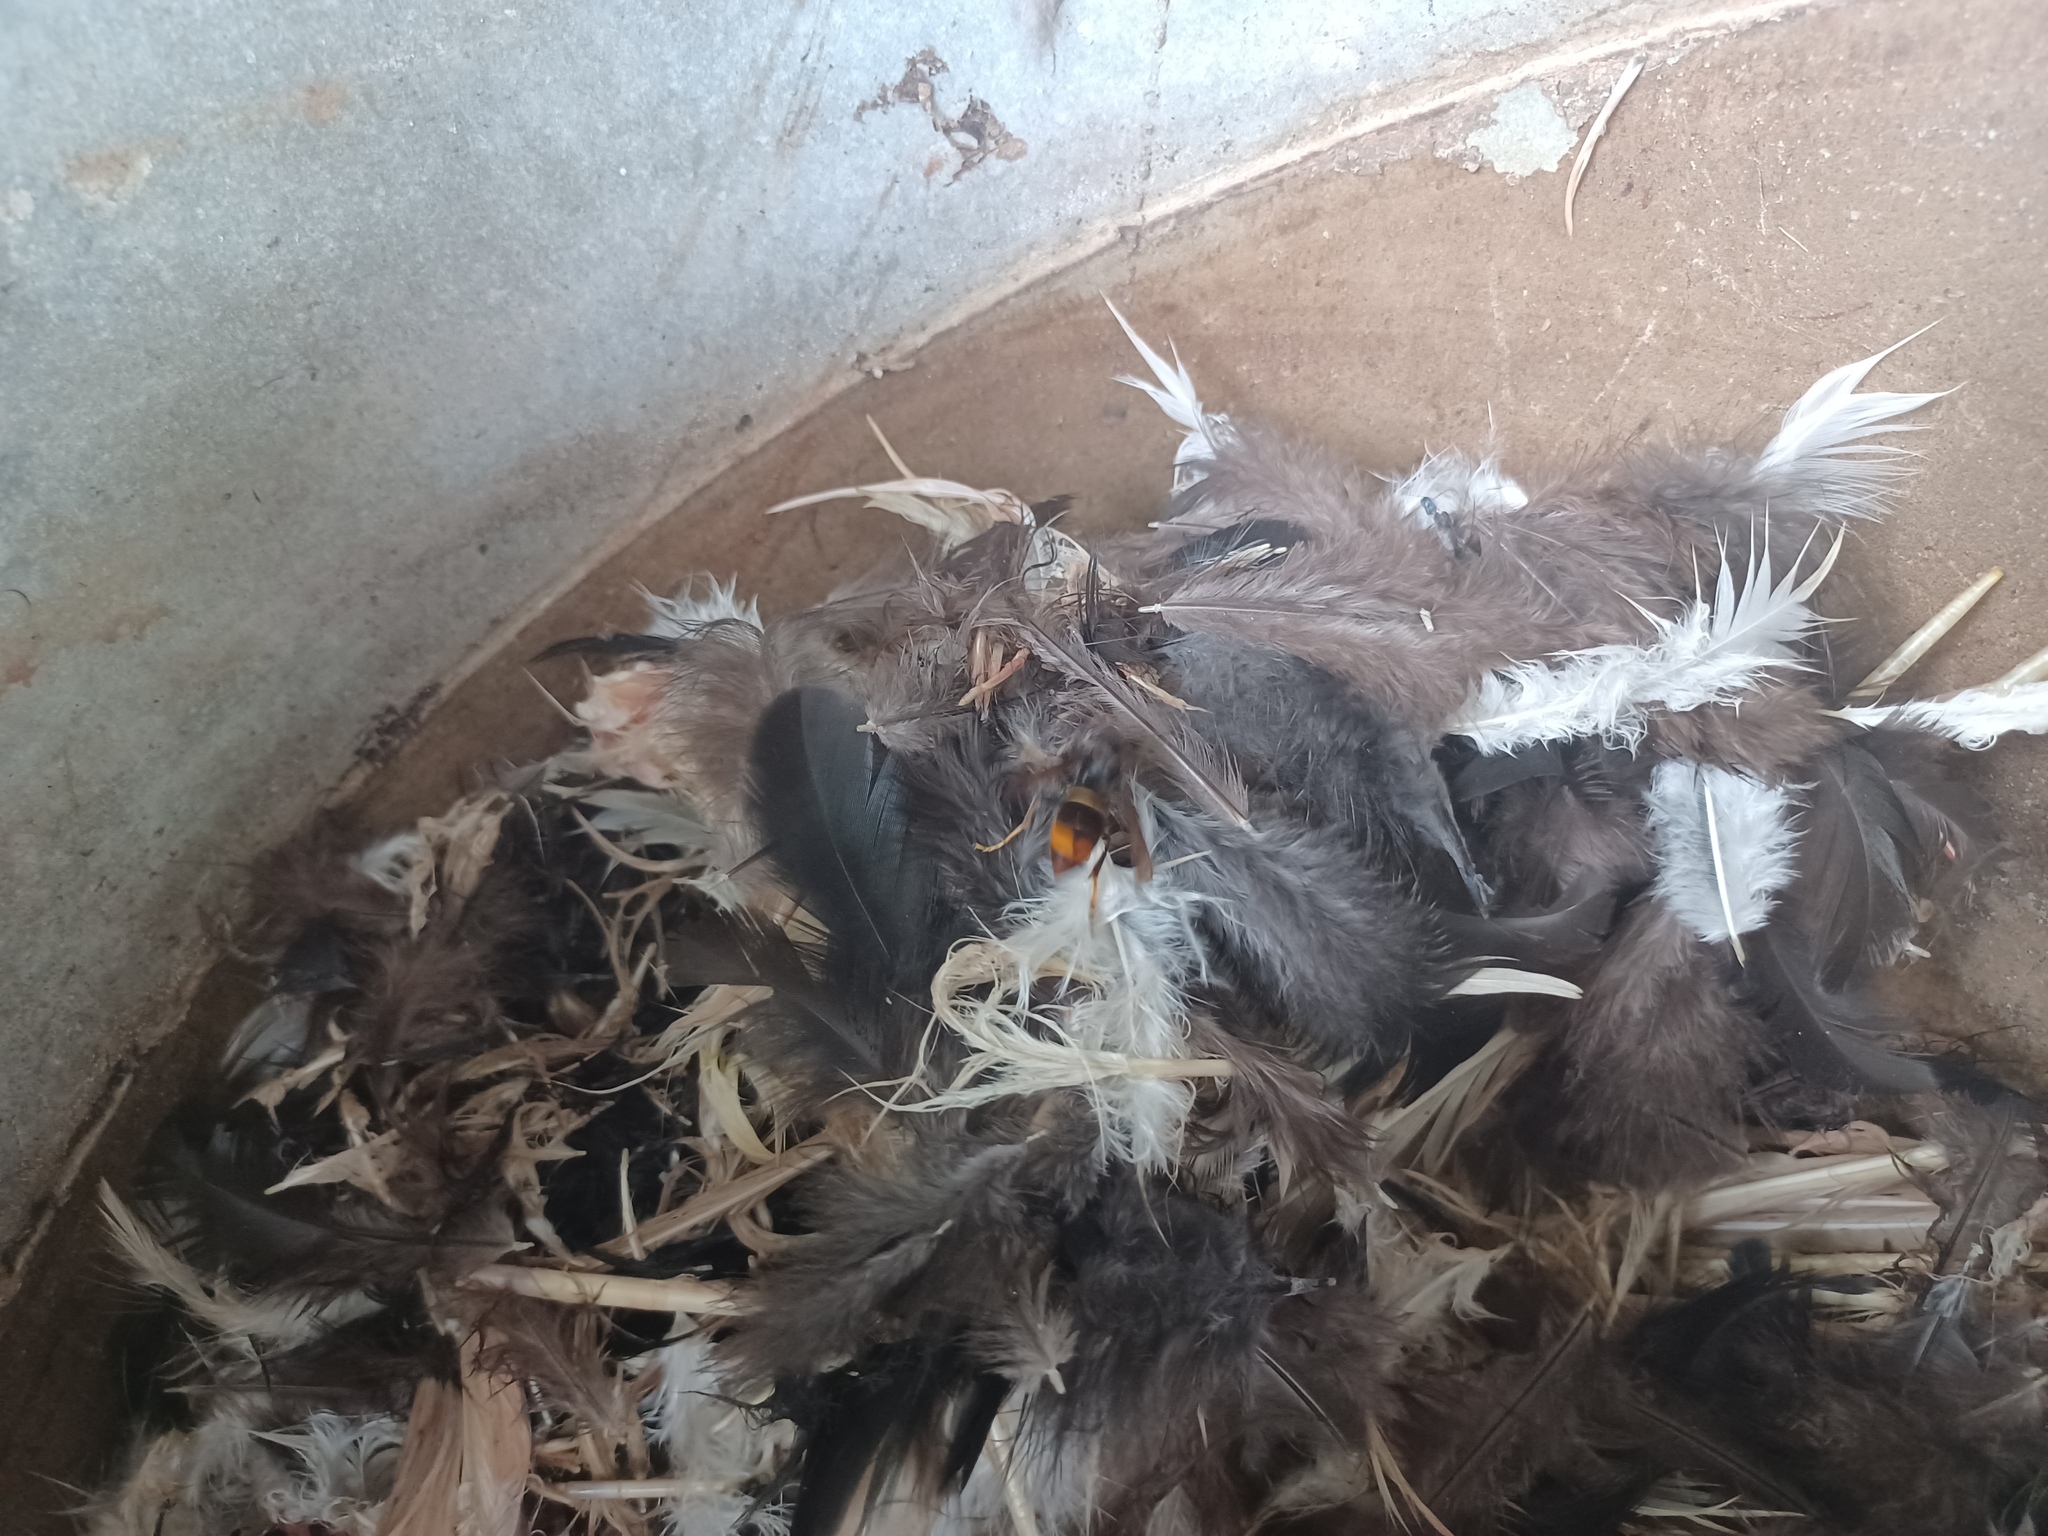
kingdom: Animalia
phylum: Arthropoda
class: Insecta
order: Hymenoptera
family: Vespidae
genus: Vespa
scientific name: Vespa velutina
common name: Asian hornet
